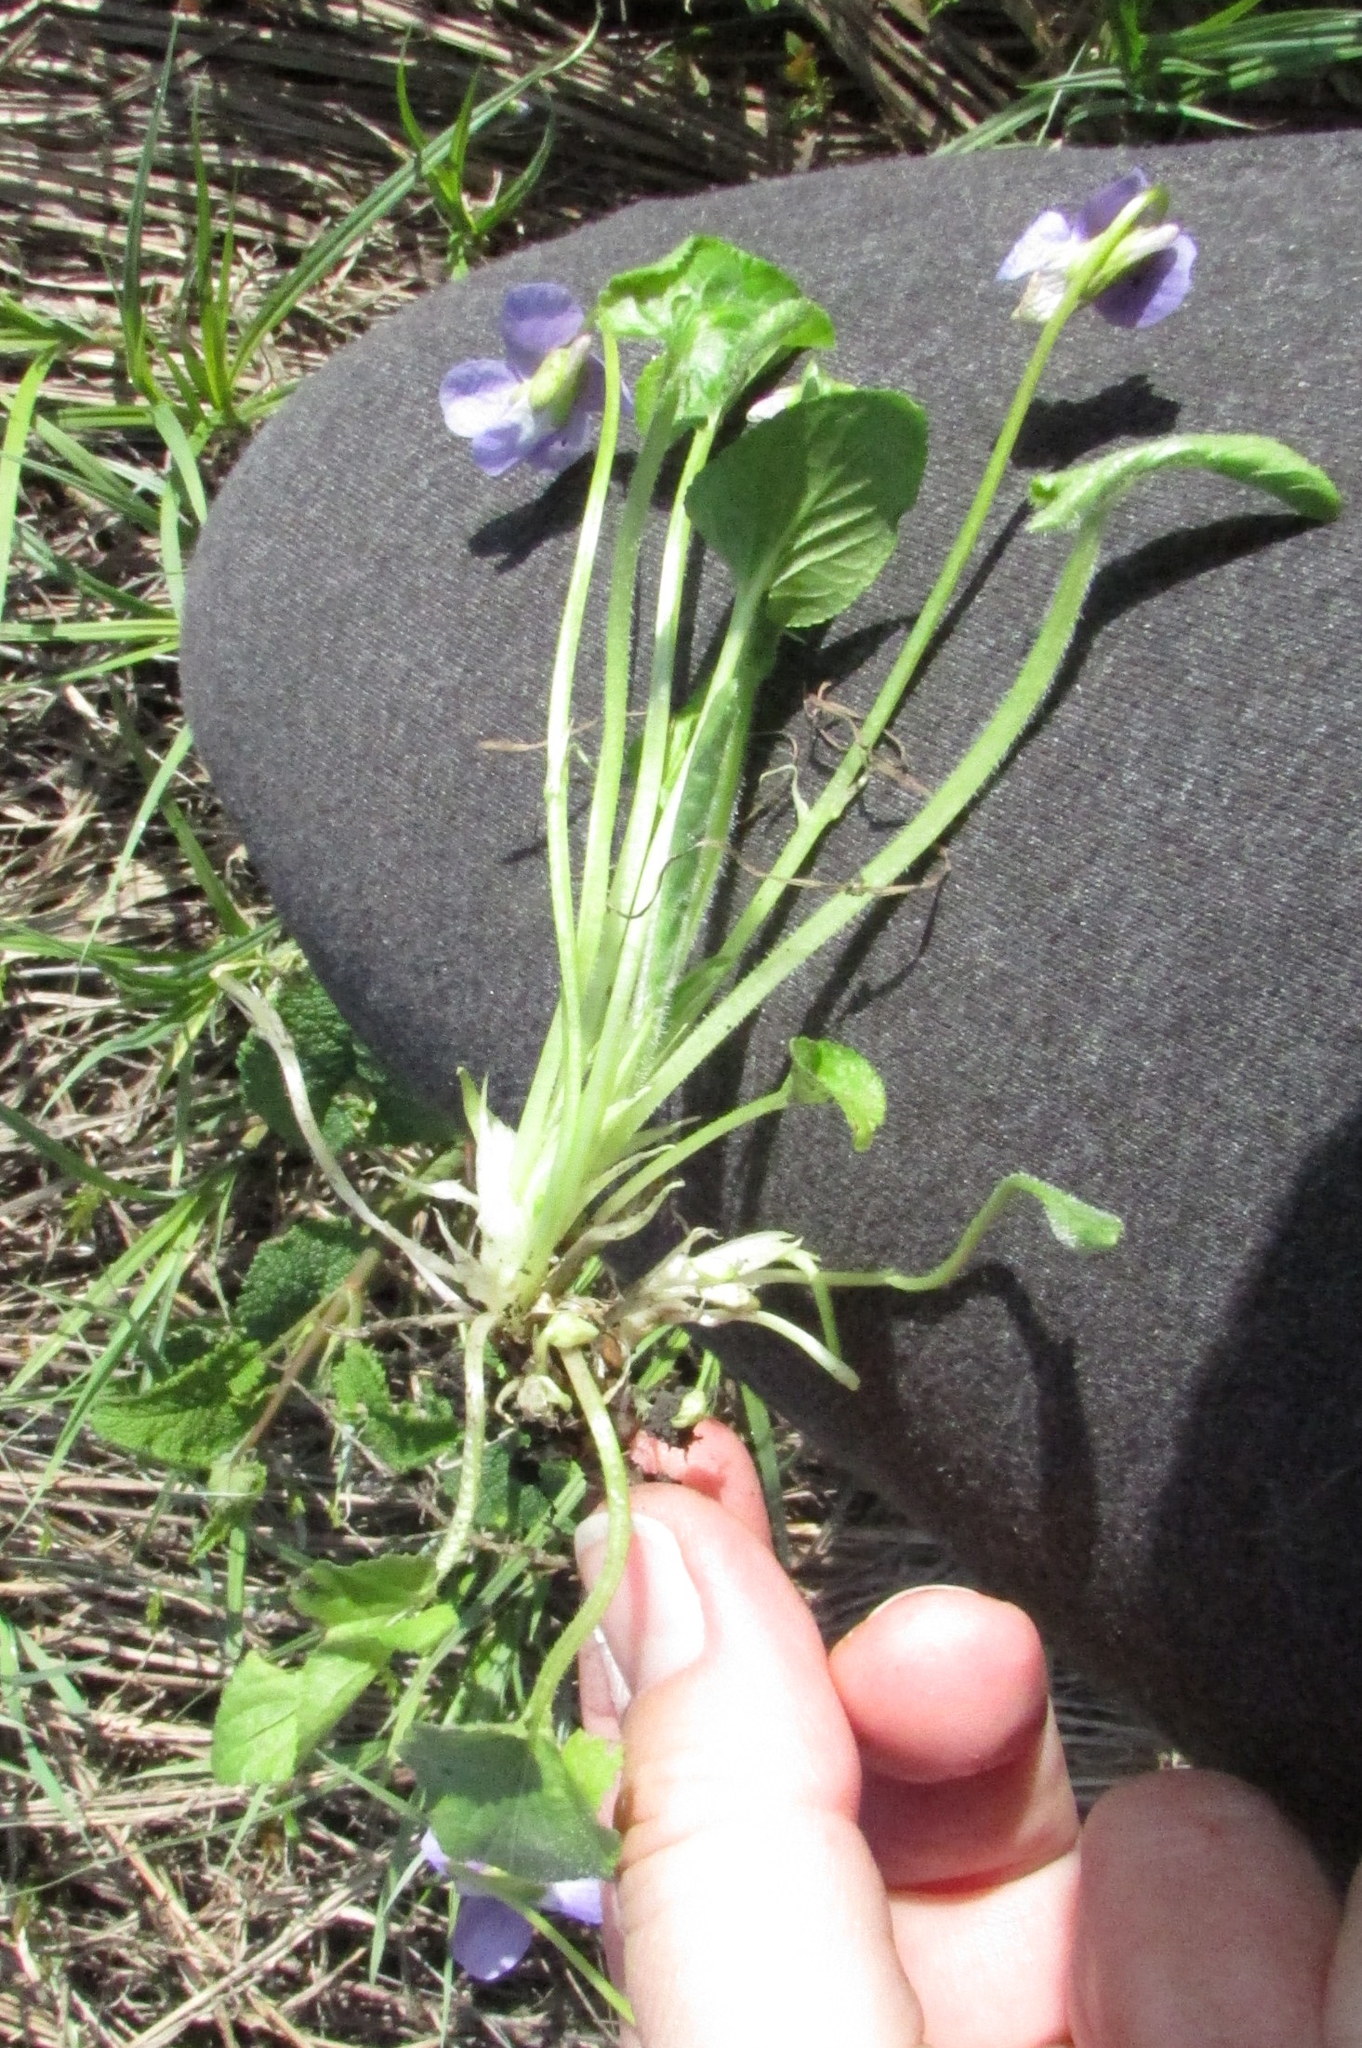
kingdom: Plantae
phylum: Tracheophyta
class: Magnoliopsida
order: Malpighiales
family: Violaceae
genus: Viola
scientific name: Viola hirta
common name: Hairy violet
